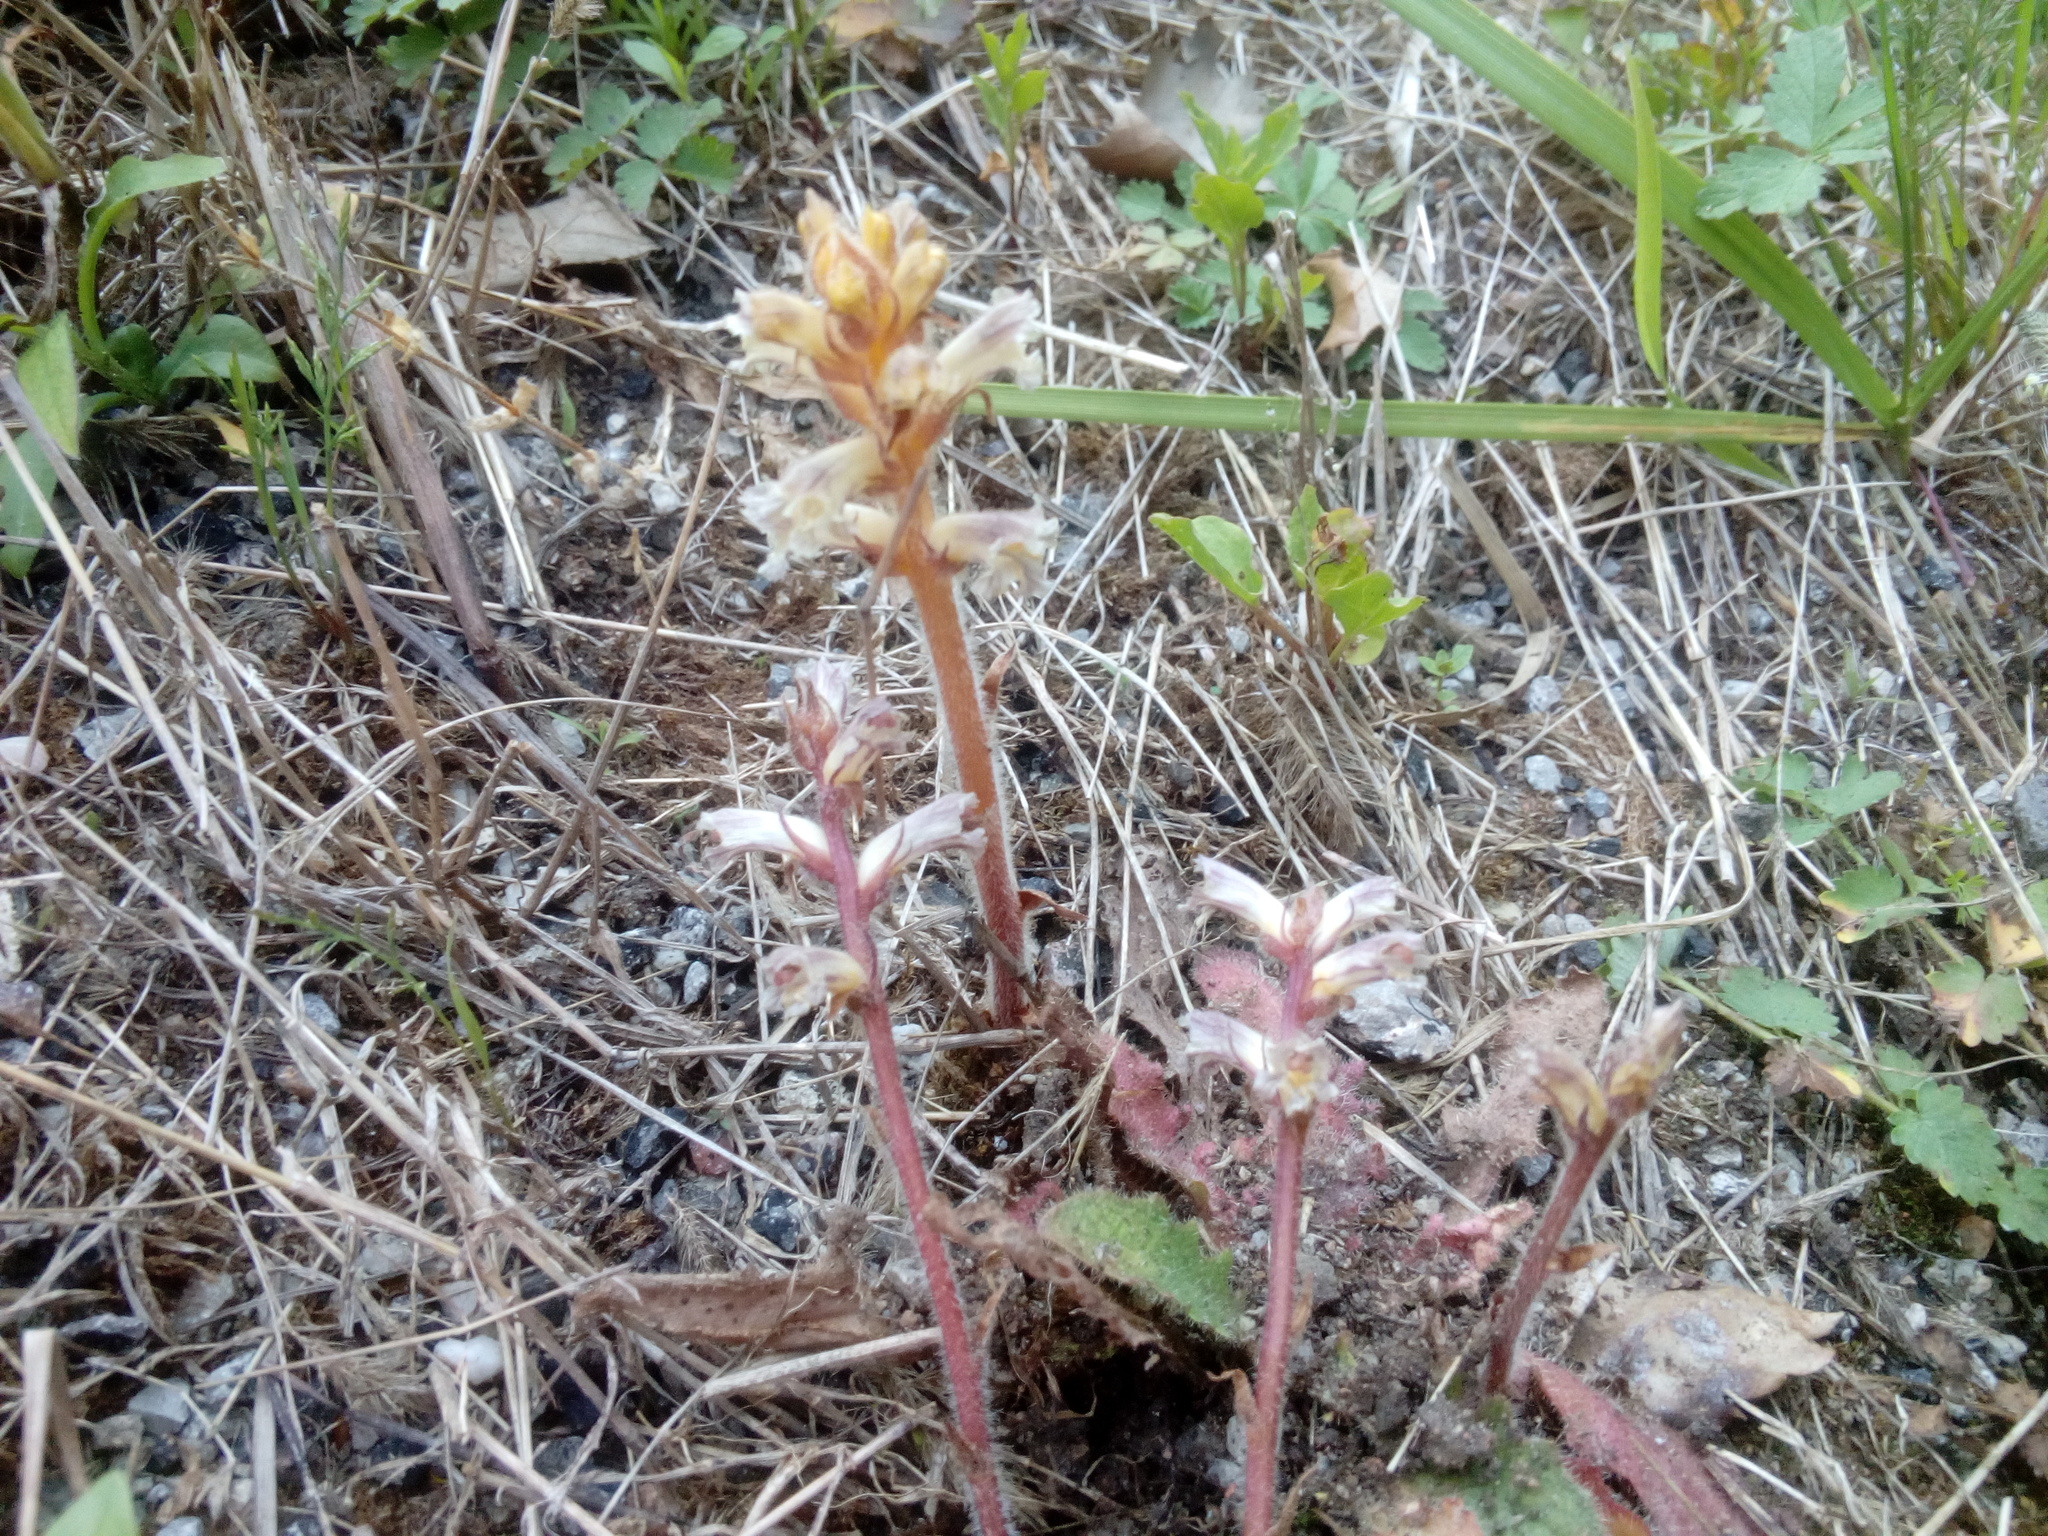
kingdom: Plantae
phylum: Tracheophyta
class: Magnoliopsida
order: Lamiales
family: Orobanchaceae
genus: Orobanche
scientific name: Orobanche minor
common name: Common broomrape
